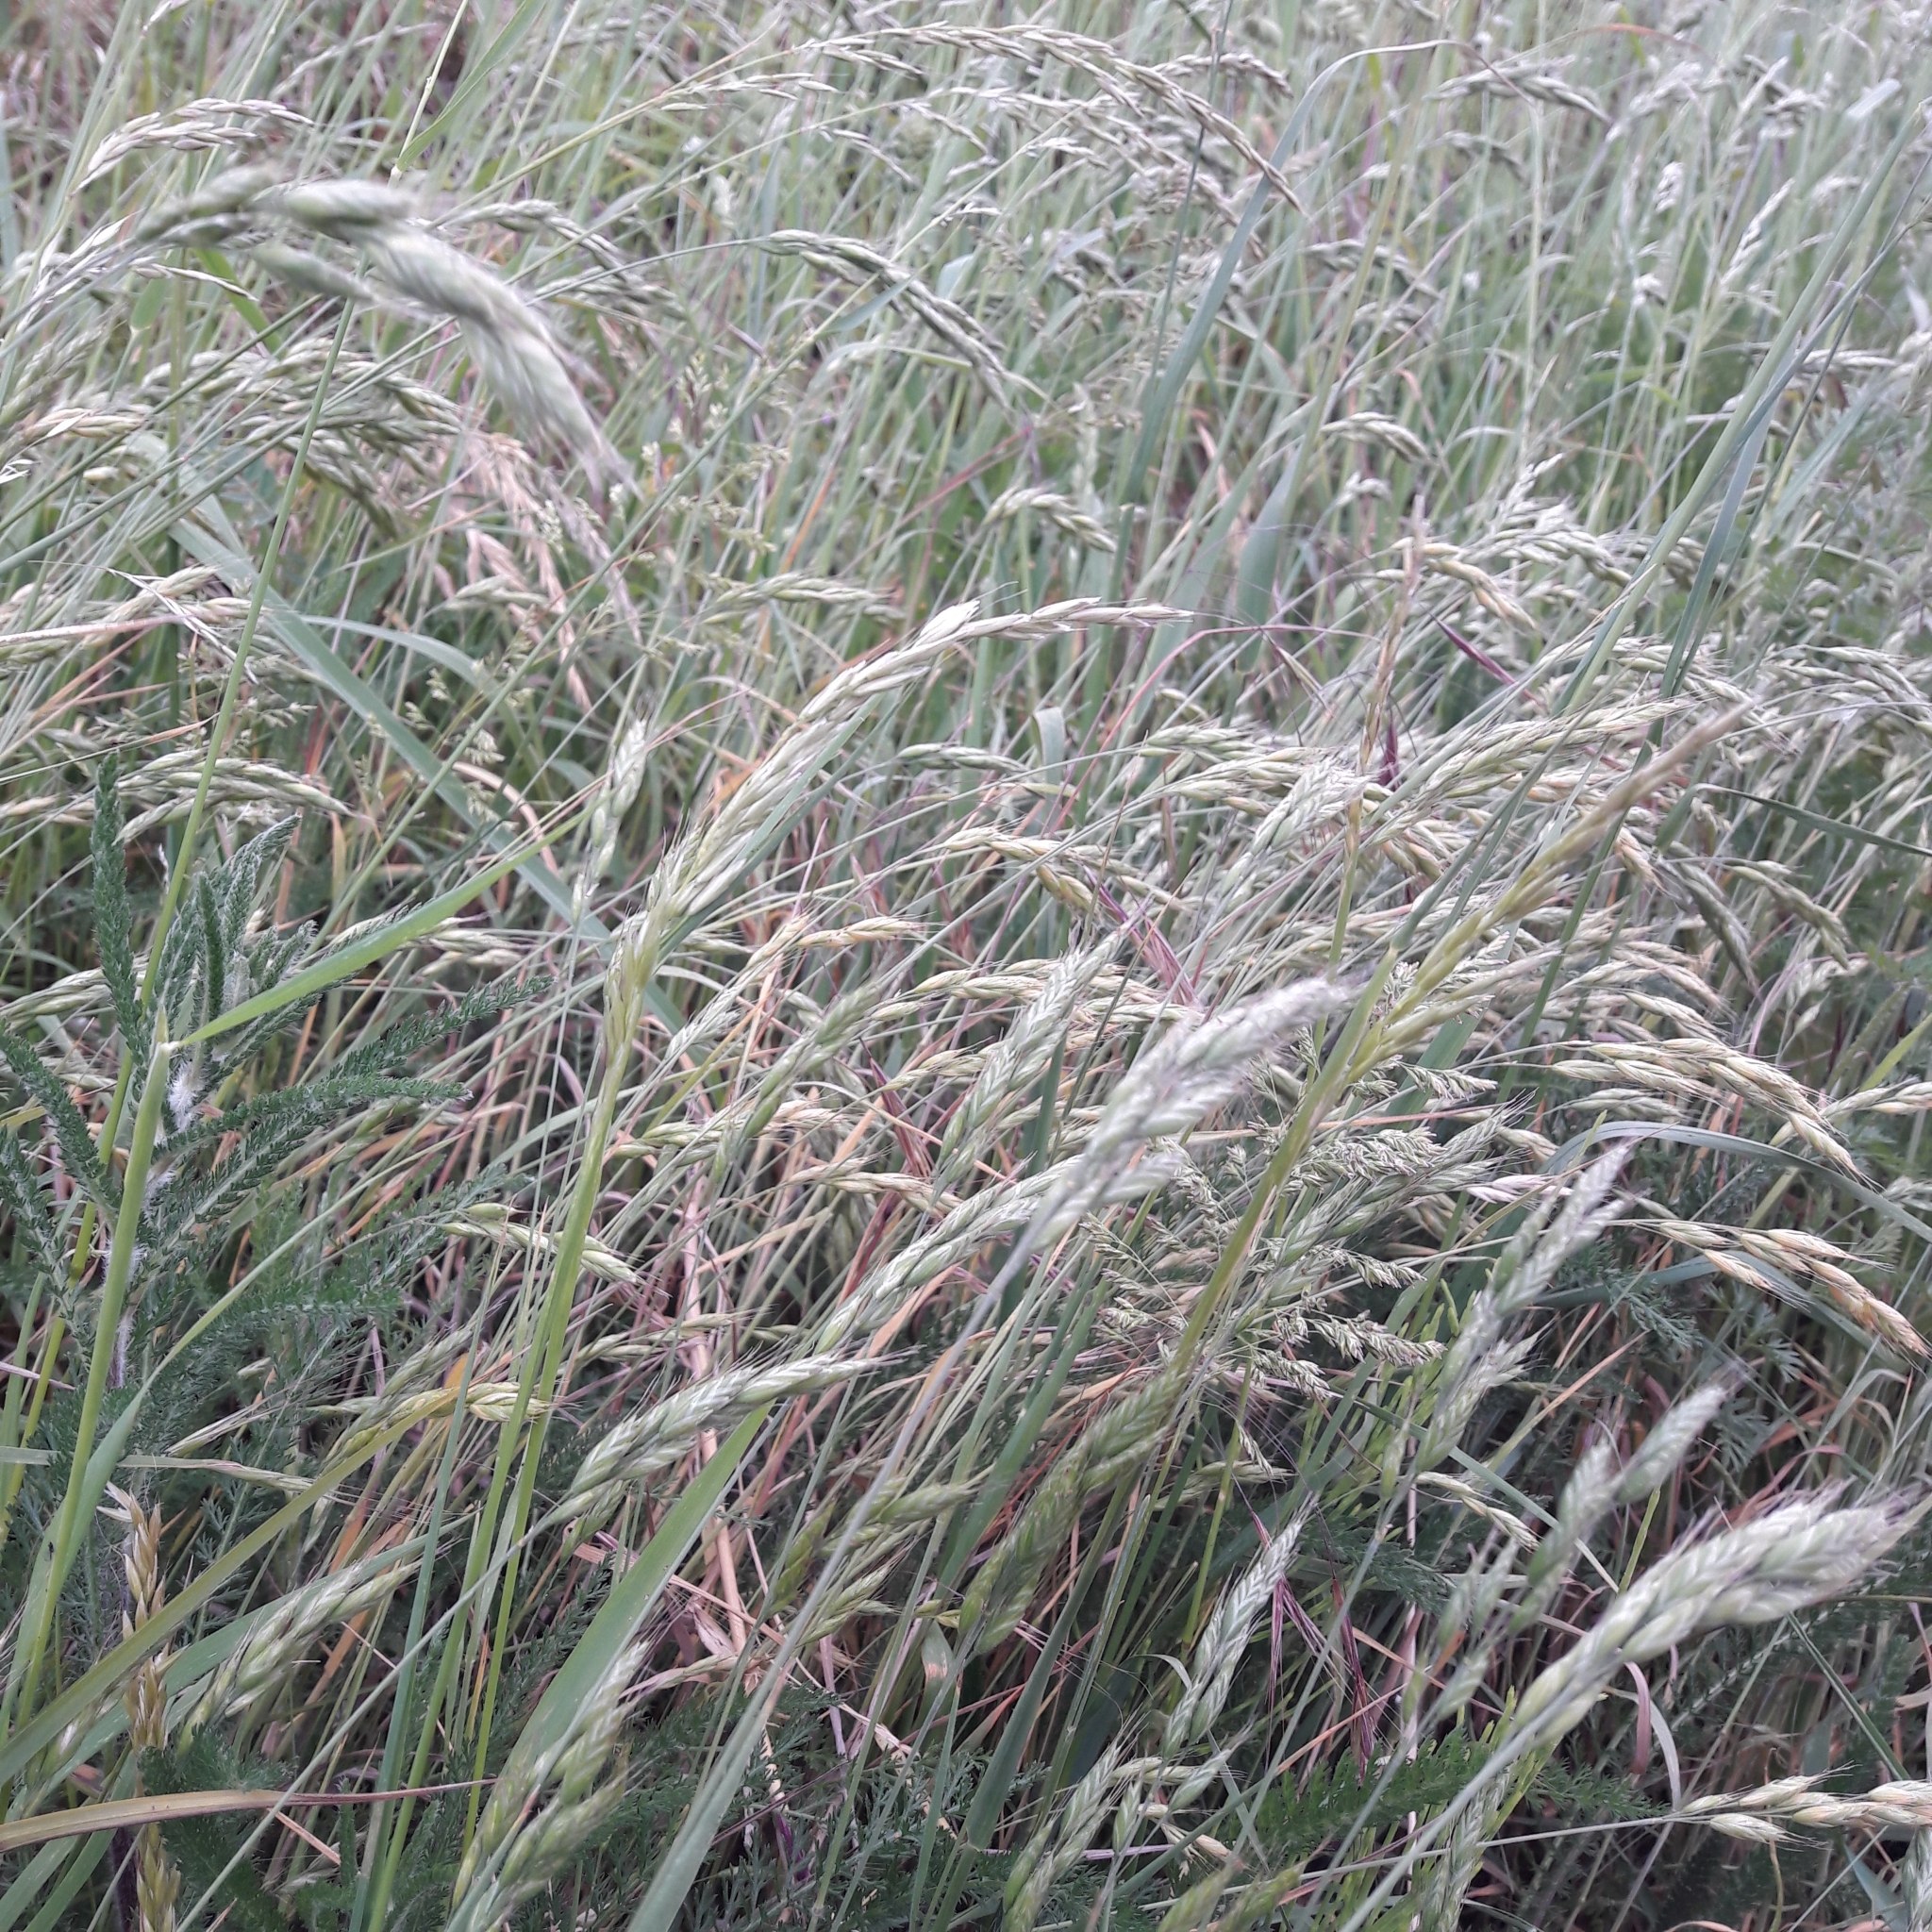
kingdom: Plantae
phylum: Tracheophyta
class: Liliopsida
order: Poales
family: Poaceae
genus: Bromus
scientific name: Bromus hordeaceus
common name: Soft brome
